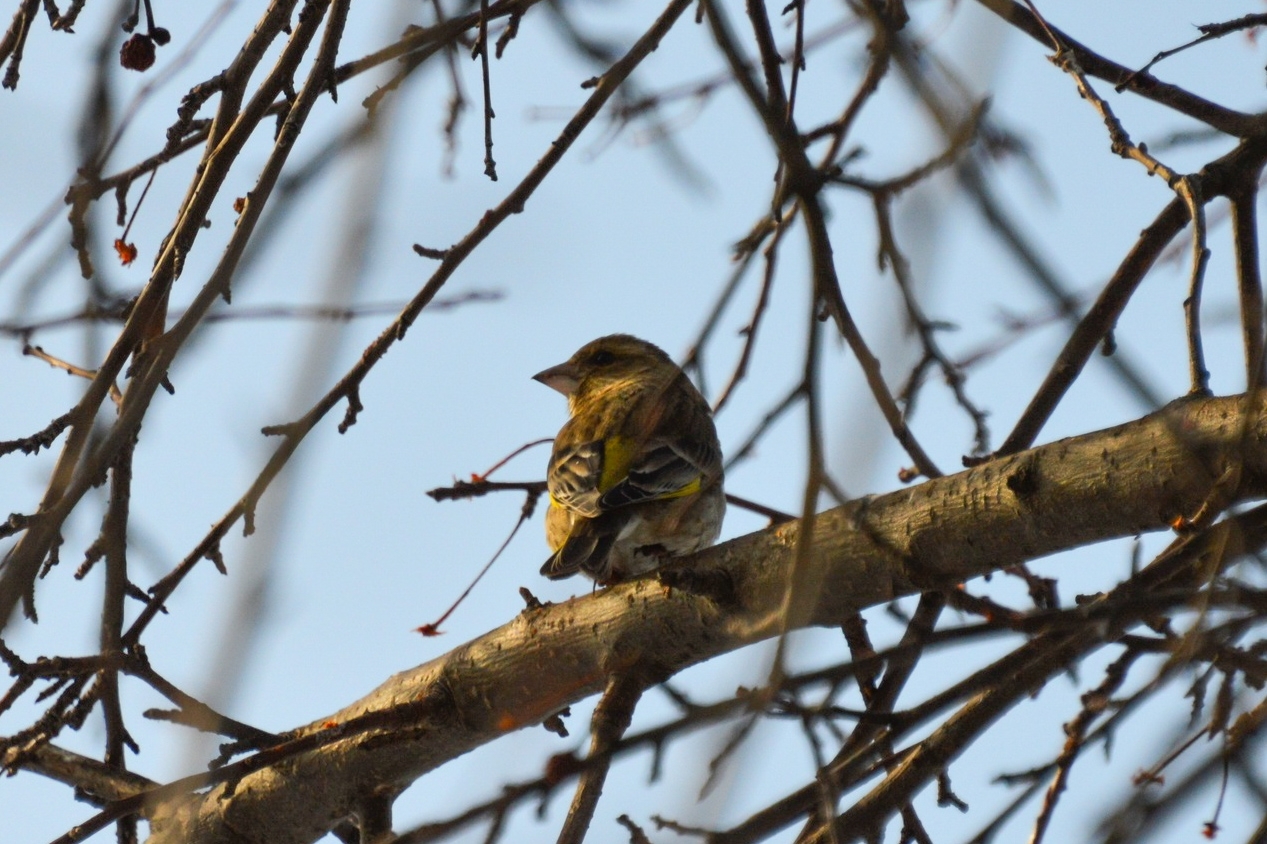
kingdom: Plantae
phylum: Tracheophyta
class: Liliopsida
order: Poales
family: Poaceae
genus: Chloris
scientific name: Chloris chloris
